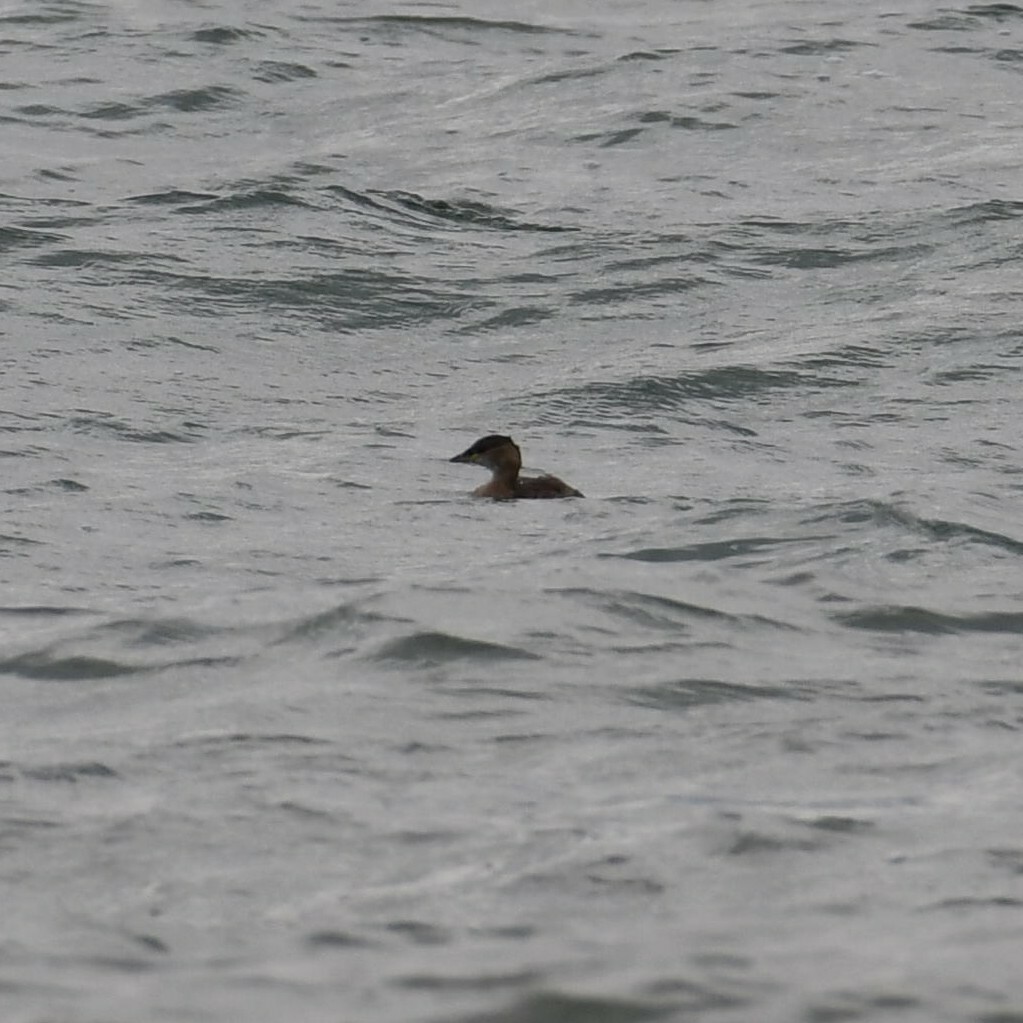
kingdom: Animalia
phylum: Chordata
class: Aves
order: Podicipediformes
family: Podicipedidae
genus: Tachybaptus
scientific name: Tachybaptus ruficollis
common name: Little grebe
